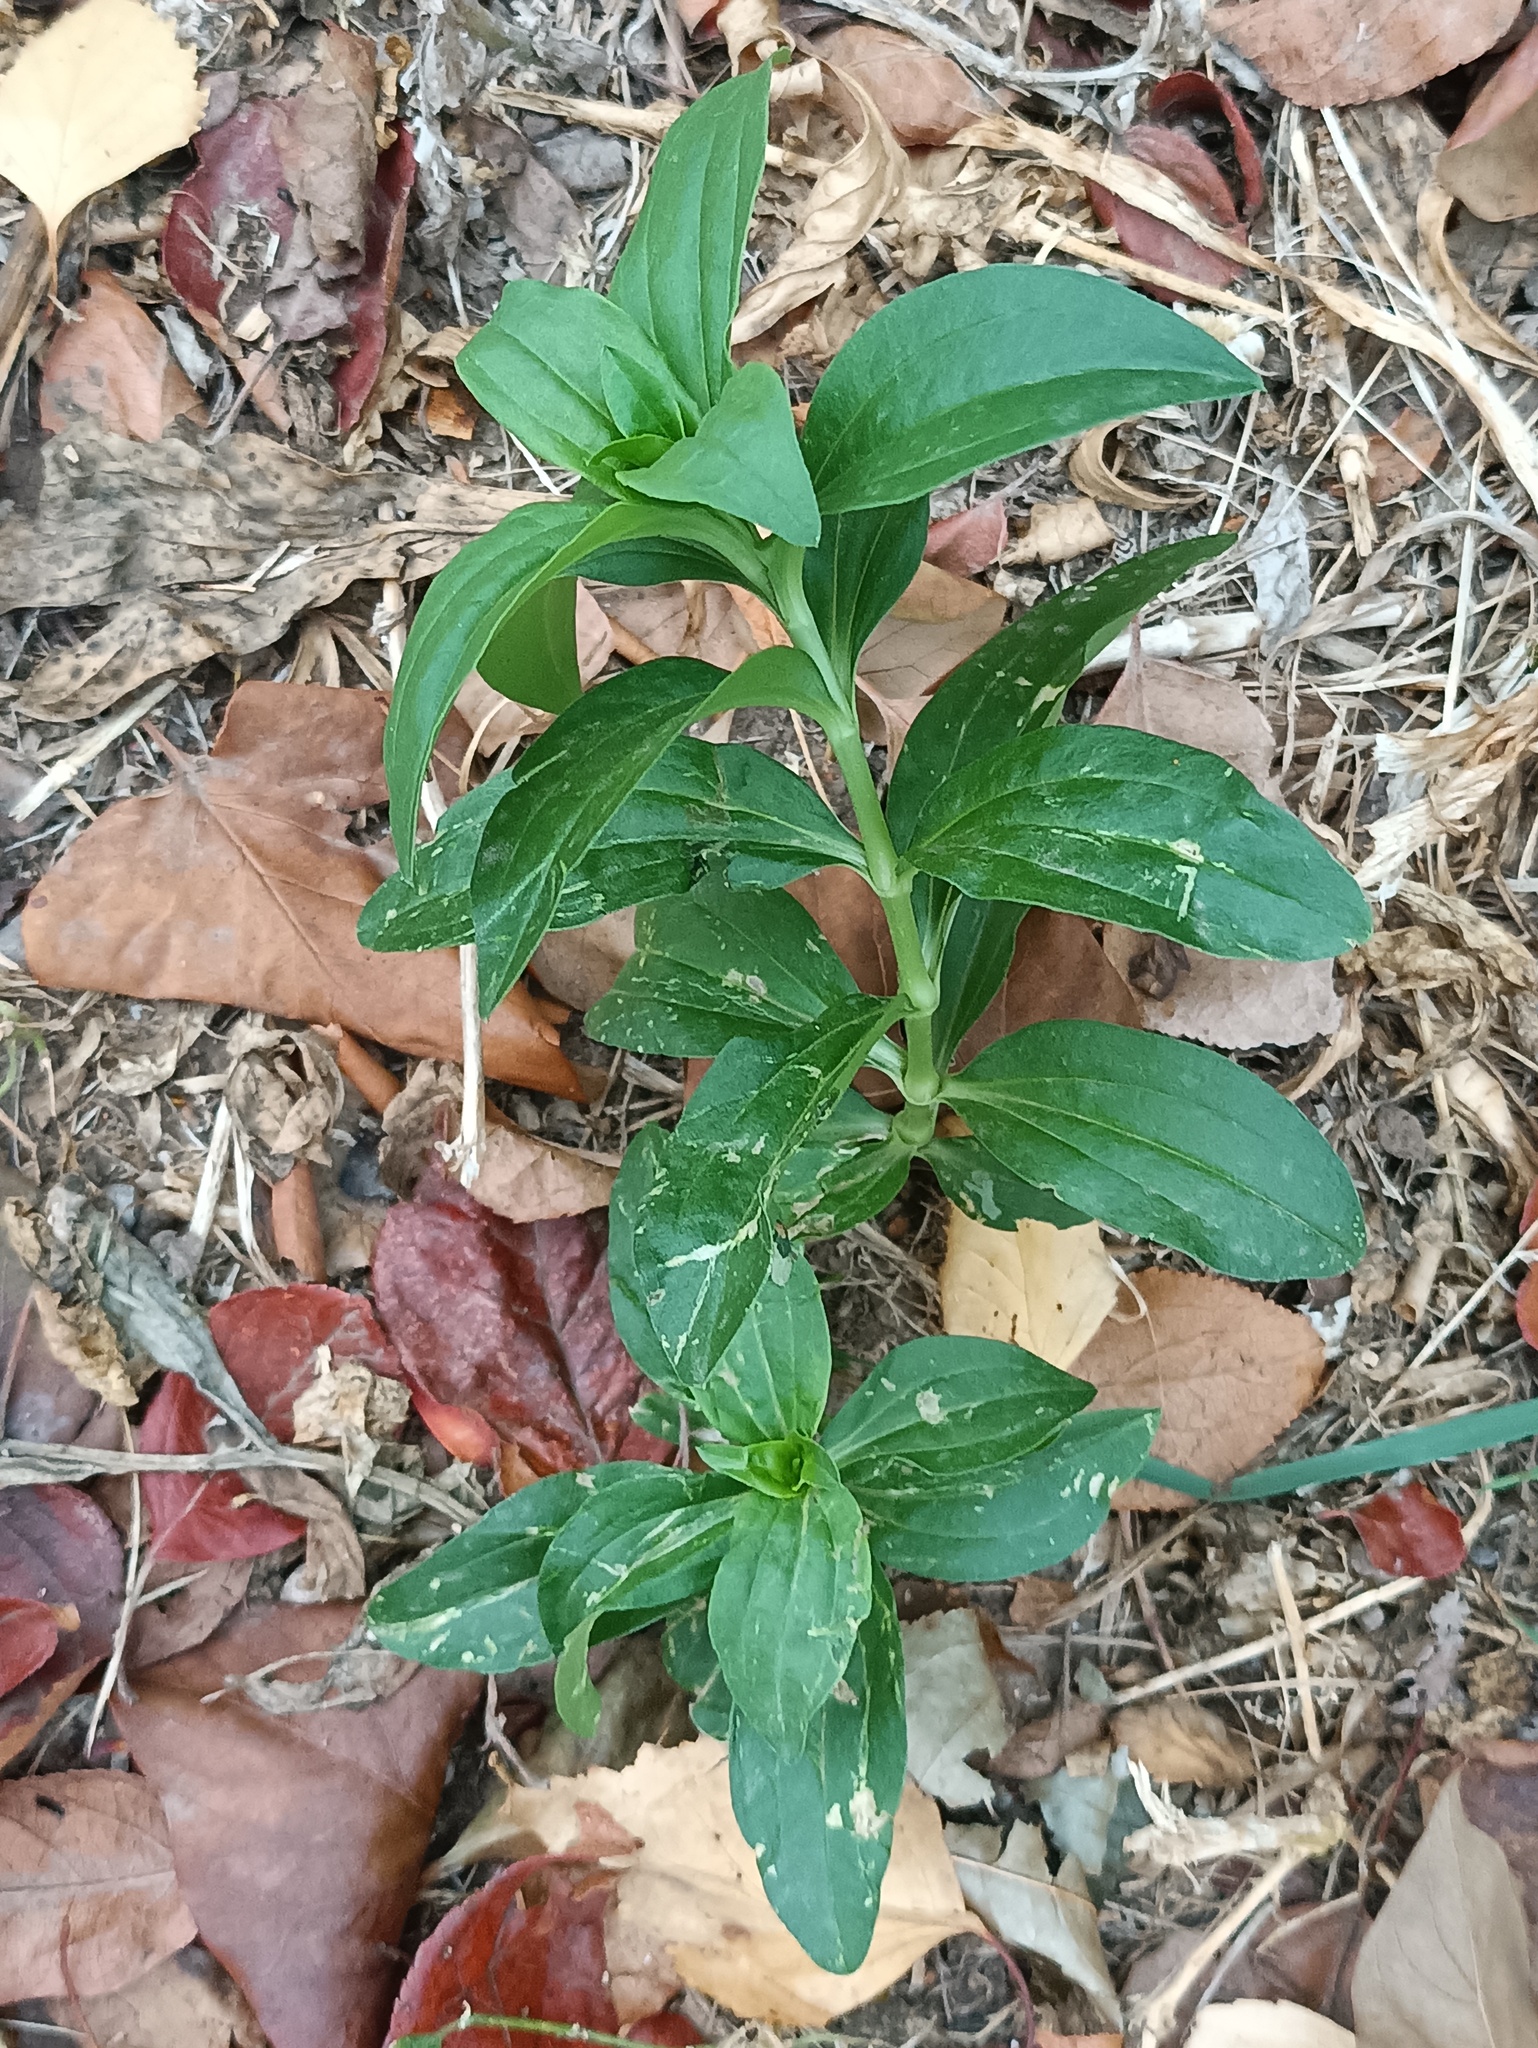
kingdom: Plantae
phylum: Tracheophyta
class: Magnoliopsida
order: Caryophyllales
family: Caryophyllaceae
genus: Saponaria
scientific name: Saponaria officinalis
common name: Soapwort
